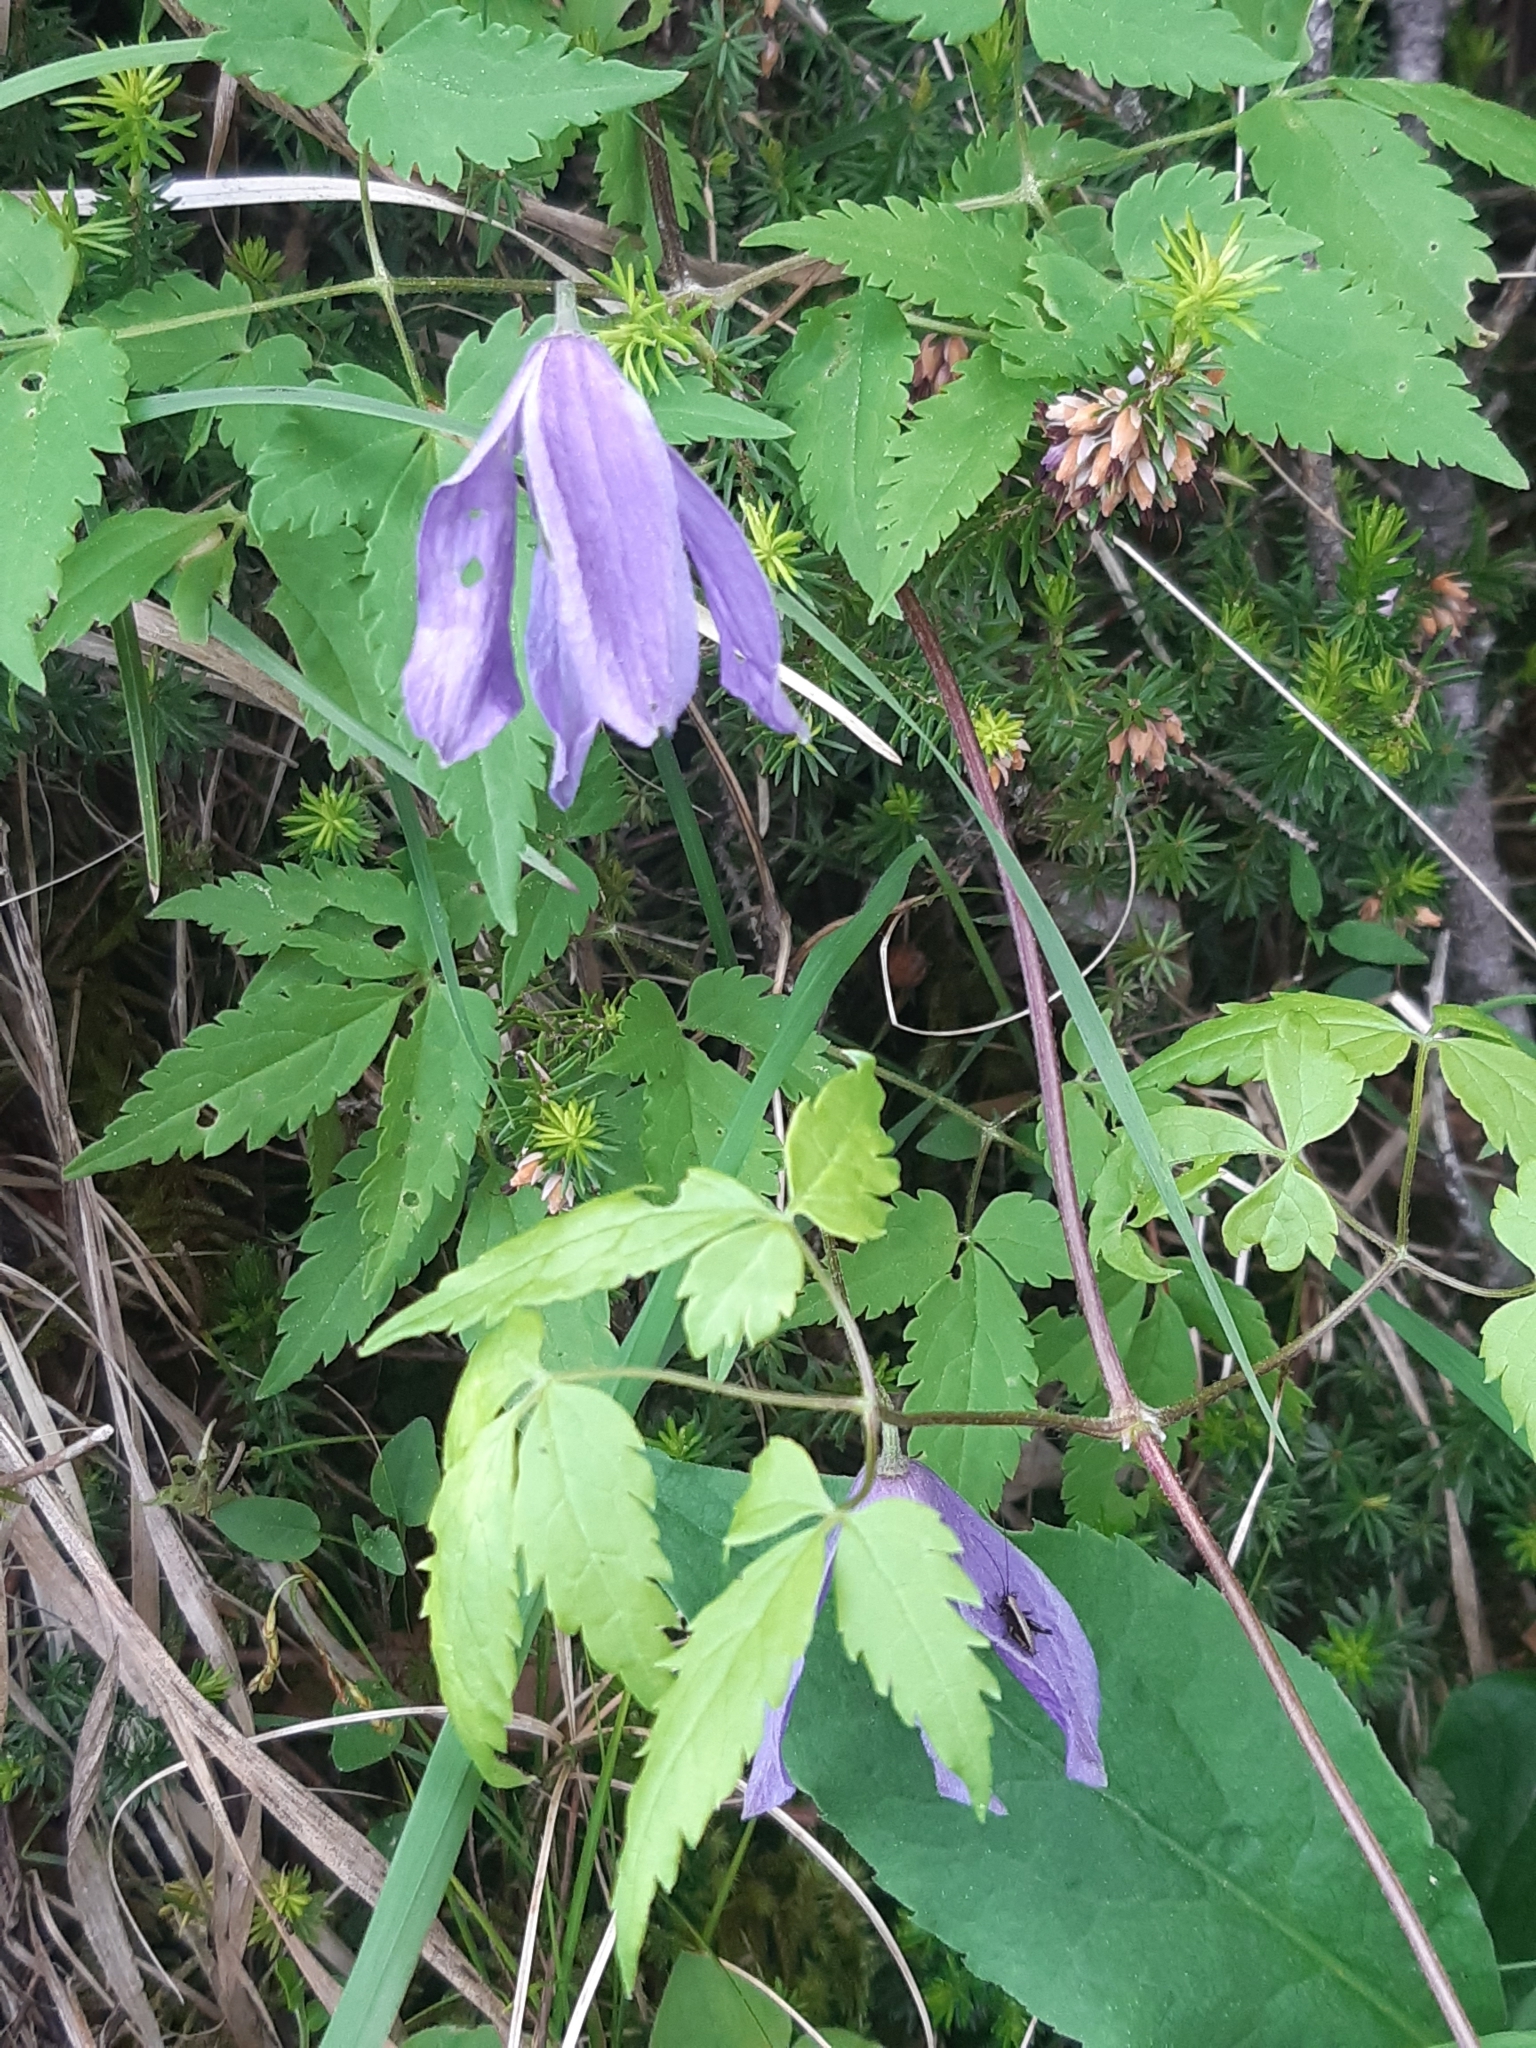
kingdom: Plantae
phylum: Tracheophyta
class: Magnoliopsida
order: Ranunculales
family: Ranunculaceae
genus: Clematis
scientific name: Clematis alpina
